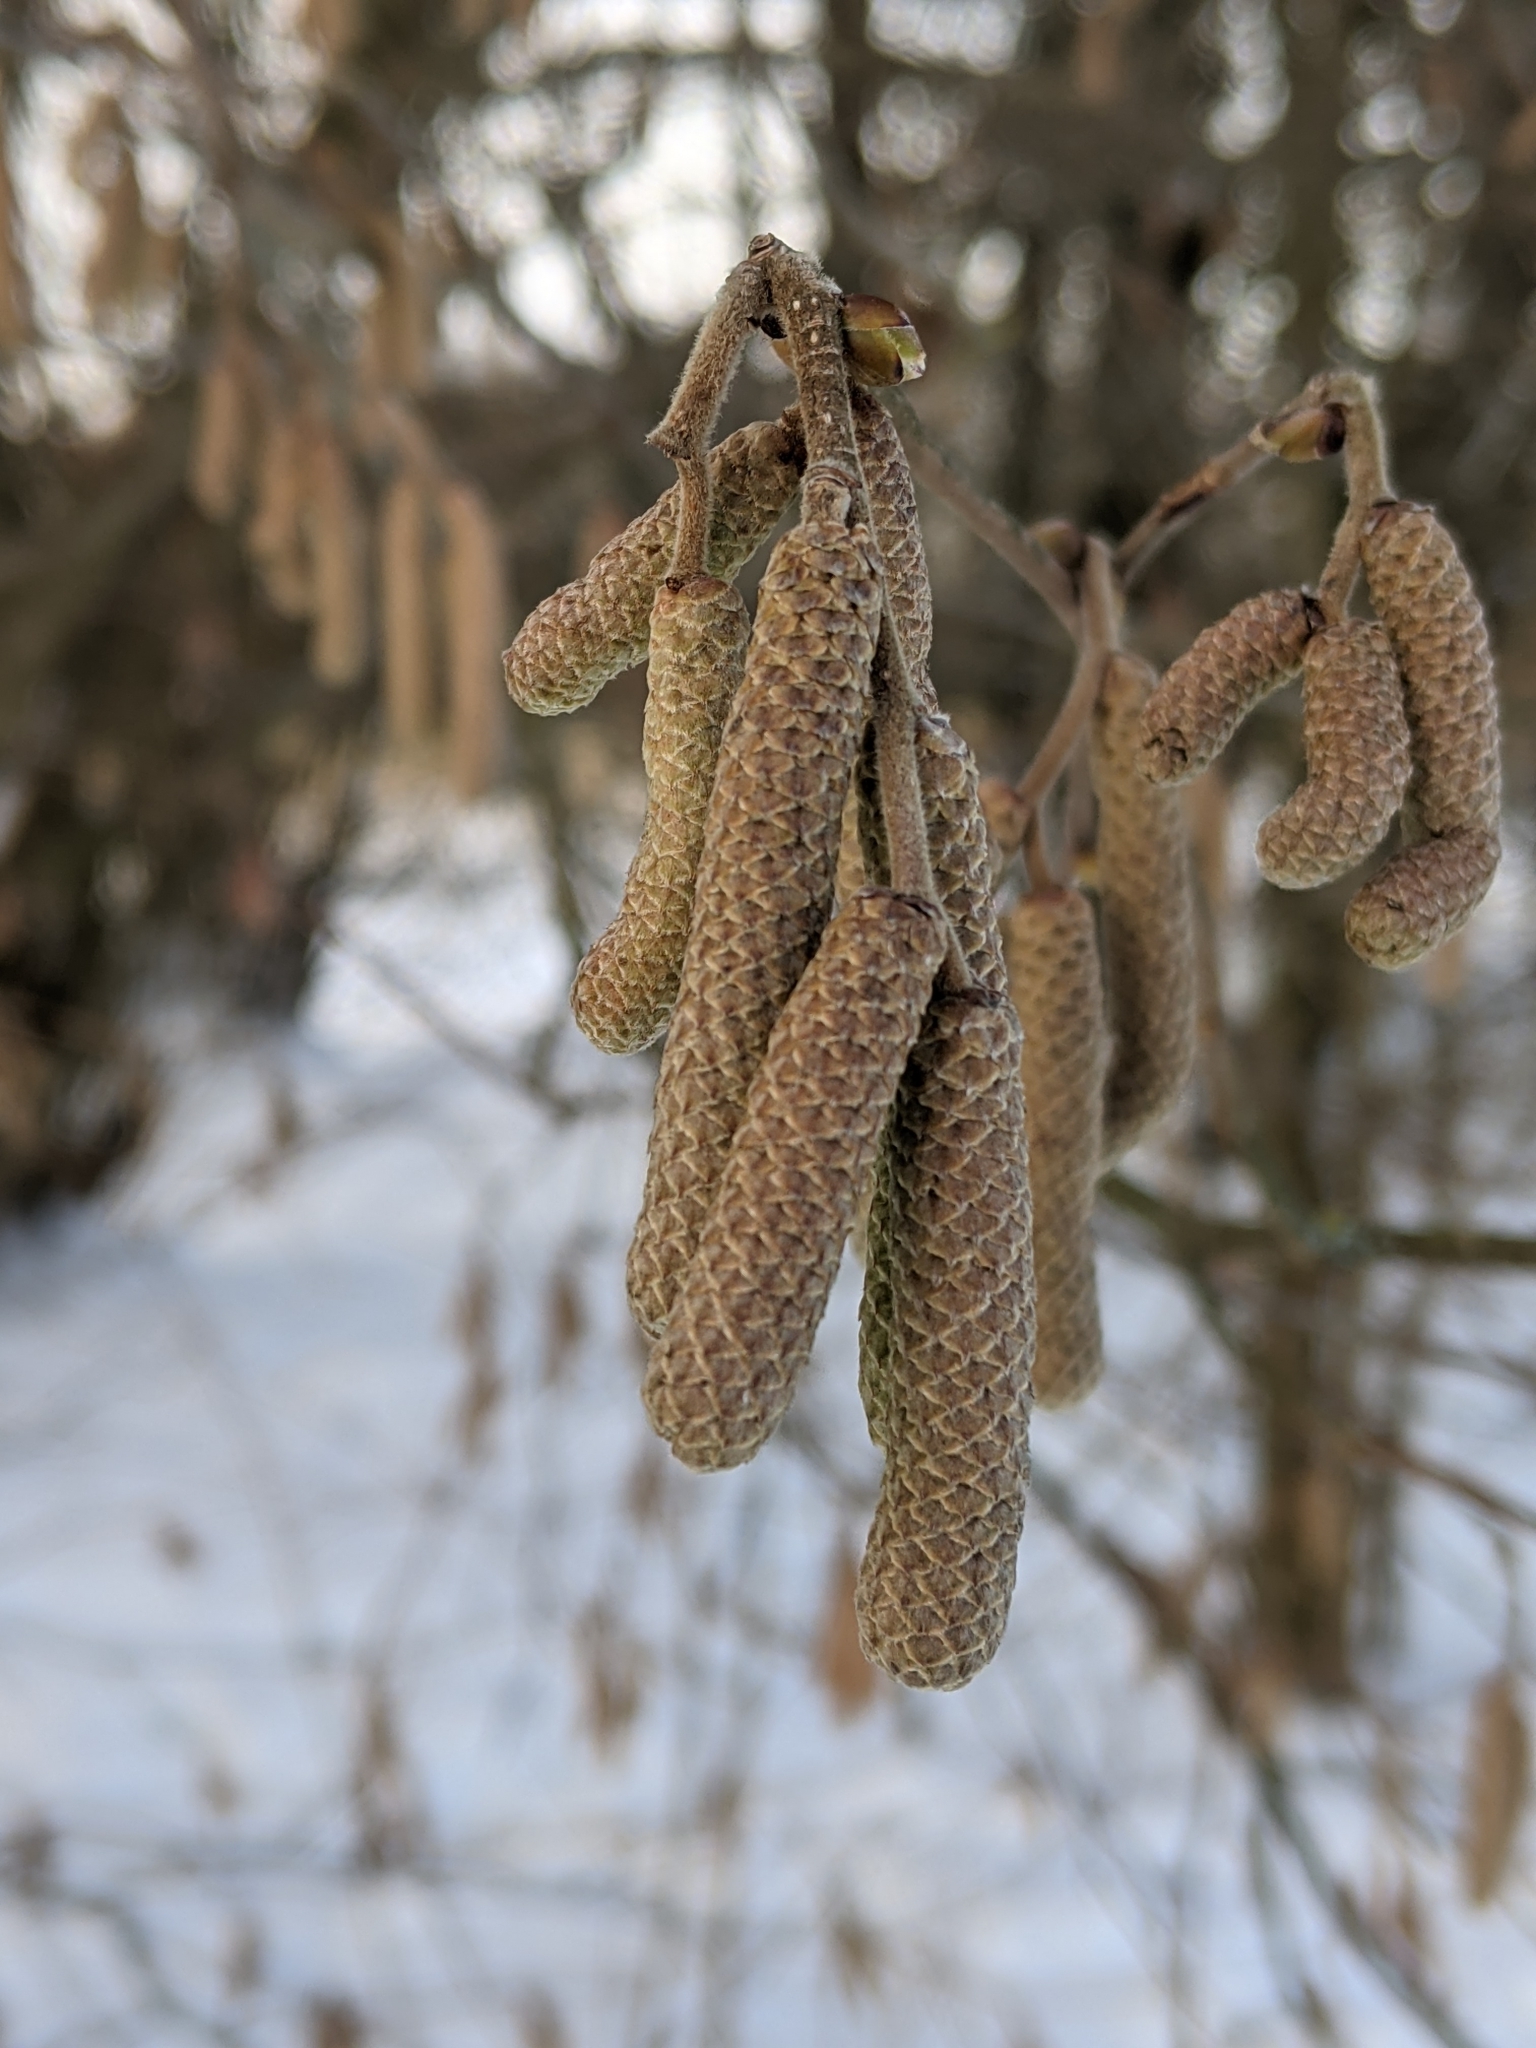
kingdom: Plantae
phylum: Tracheophyta
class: Magnoliopsida
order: Fagales
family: Betulaceae
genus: Corylus
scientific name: Corylus avellana
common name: European hazel
